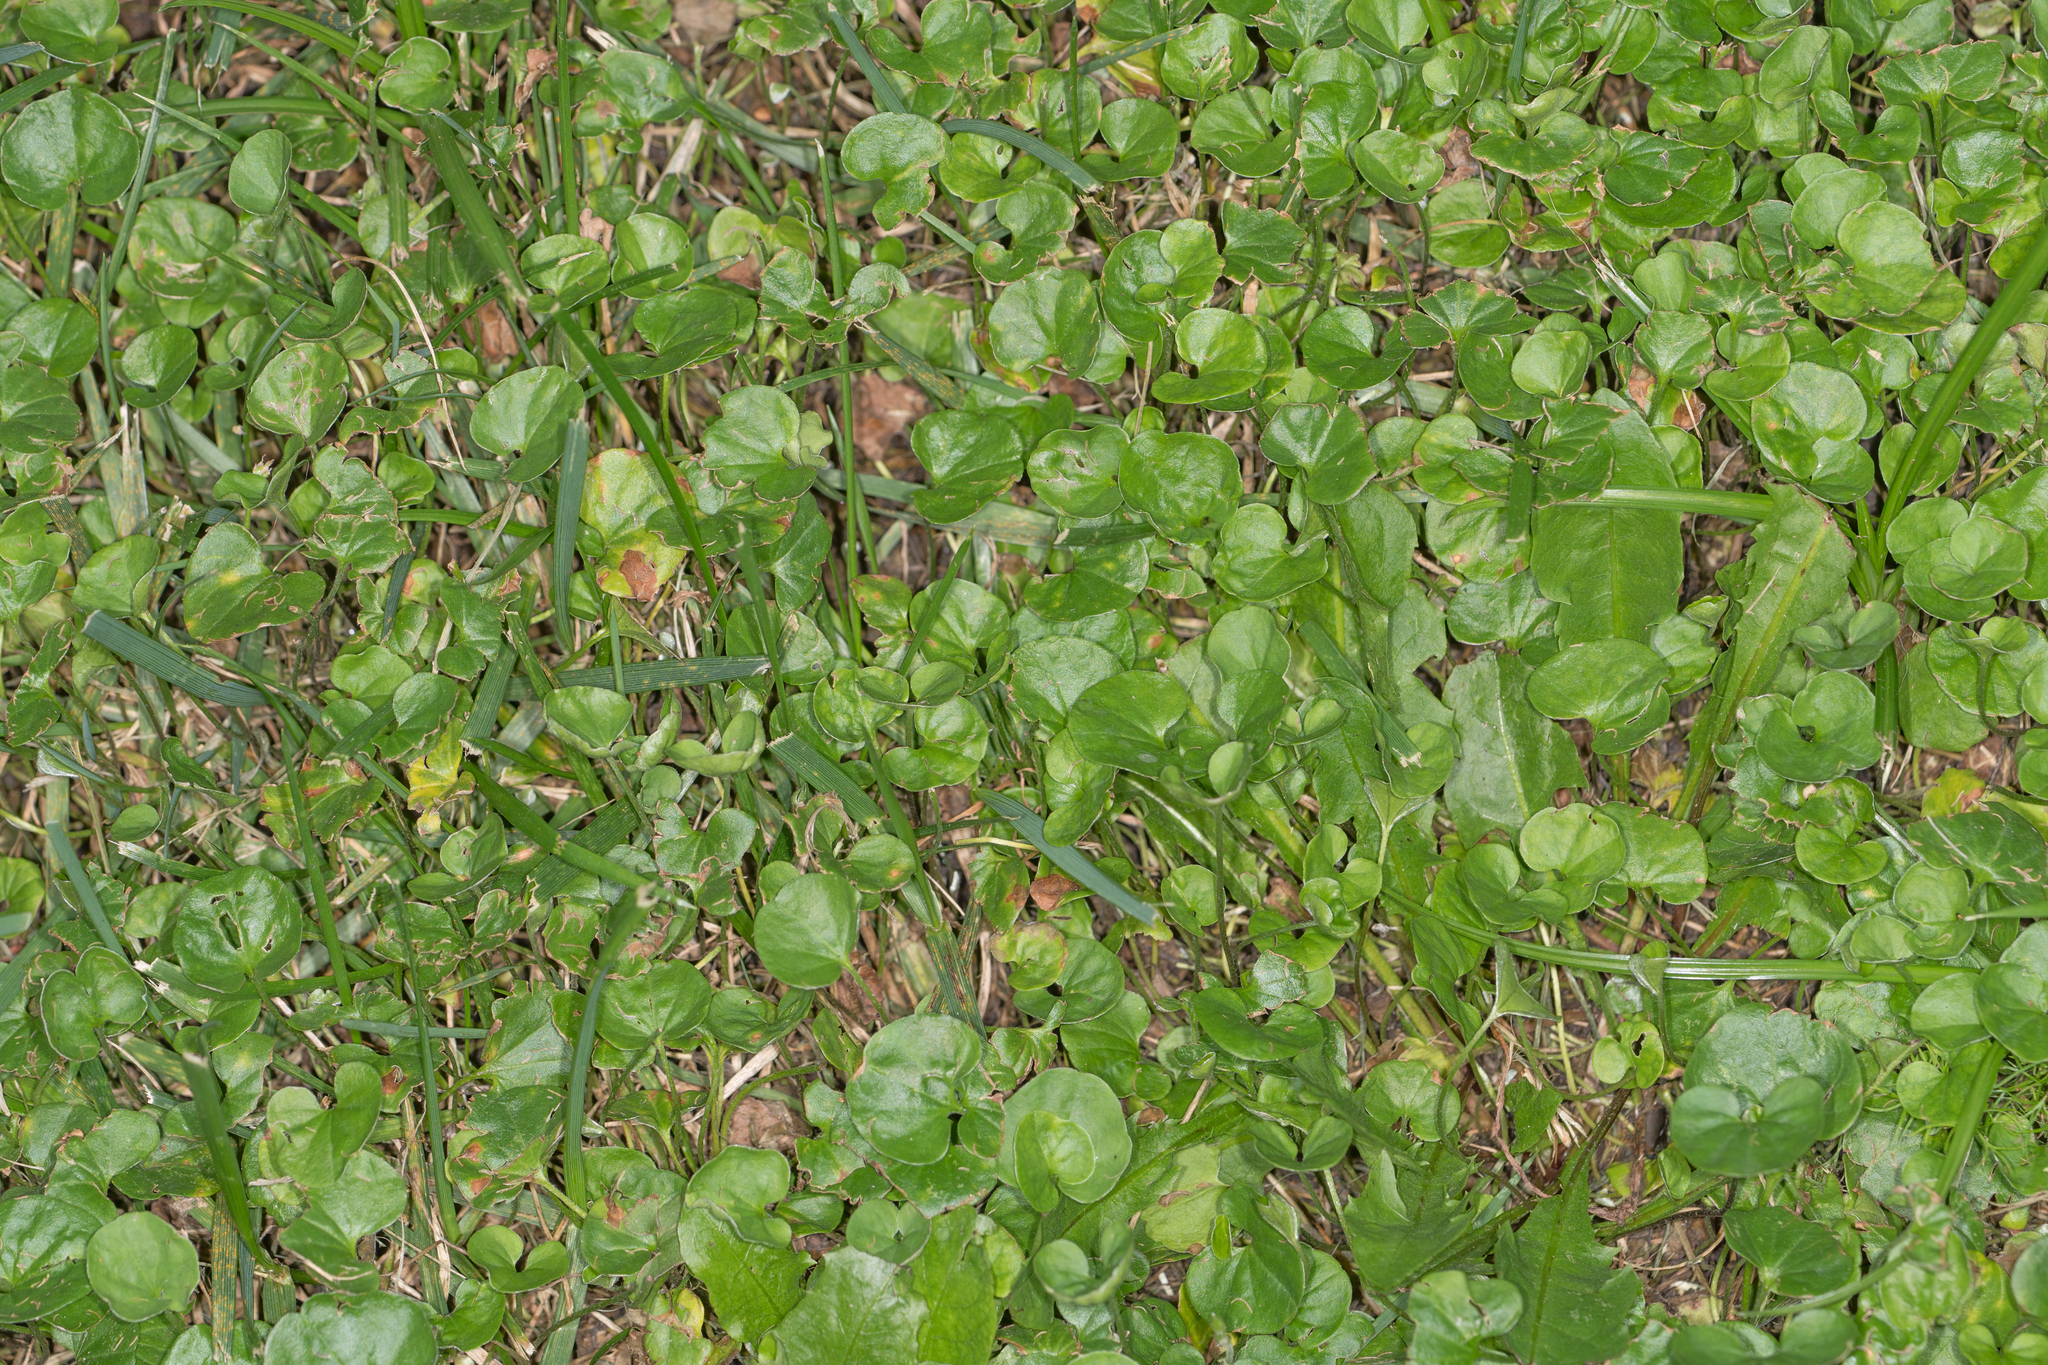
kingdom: Plantae
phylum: Tracheophyta
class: Magnoliopsida
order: Solanales
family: Convolvulaceae
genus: Dichondra
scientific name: Dichondra micrantha
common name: Kidneyweed
